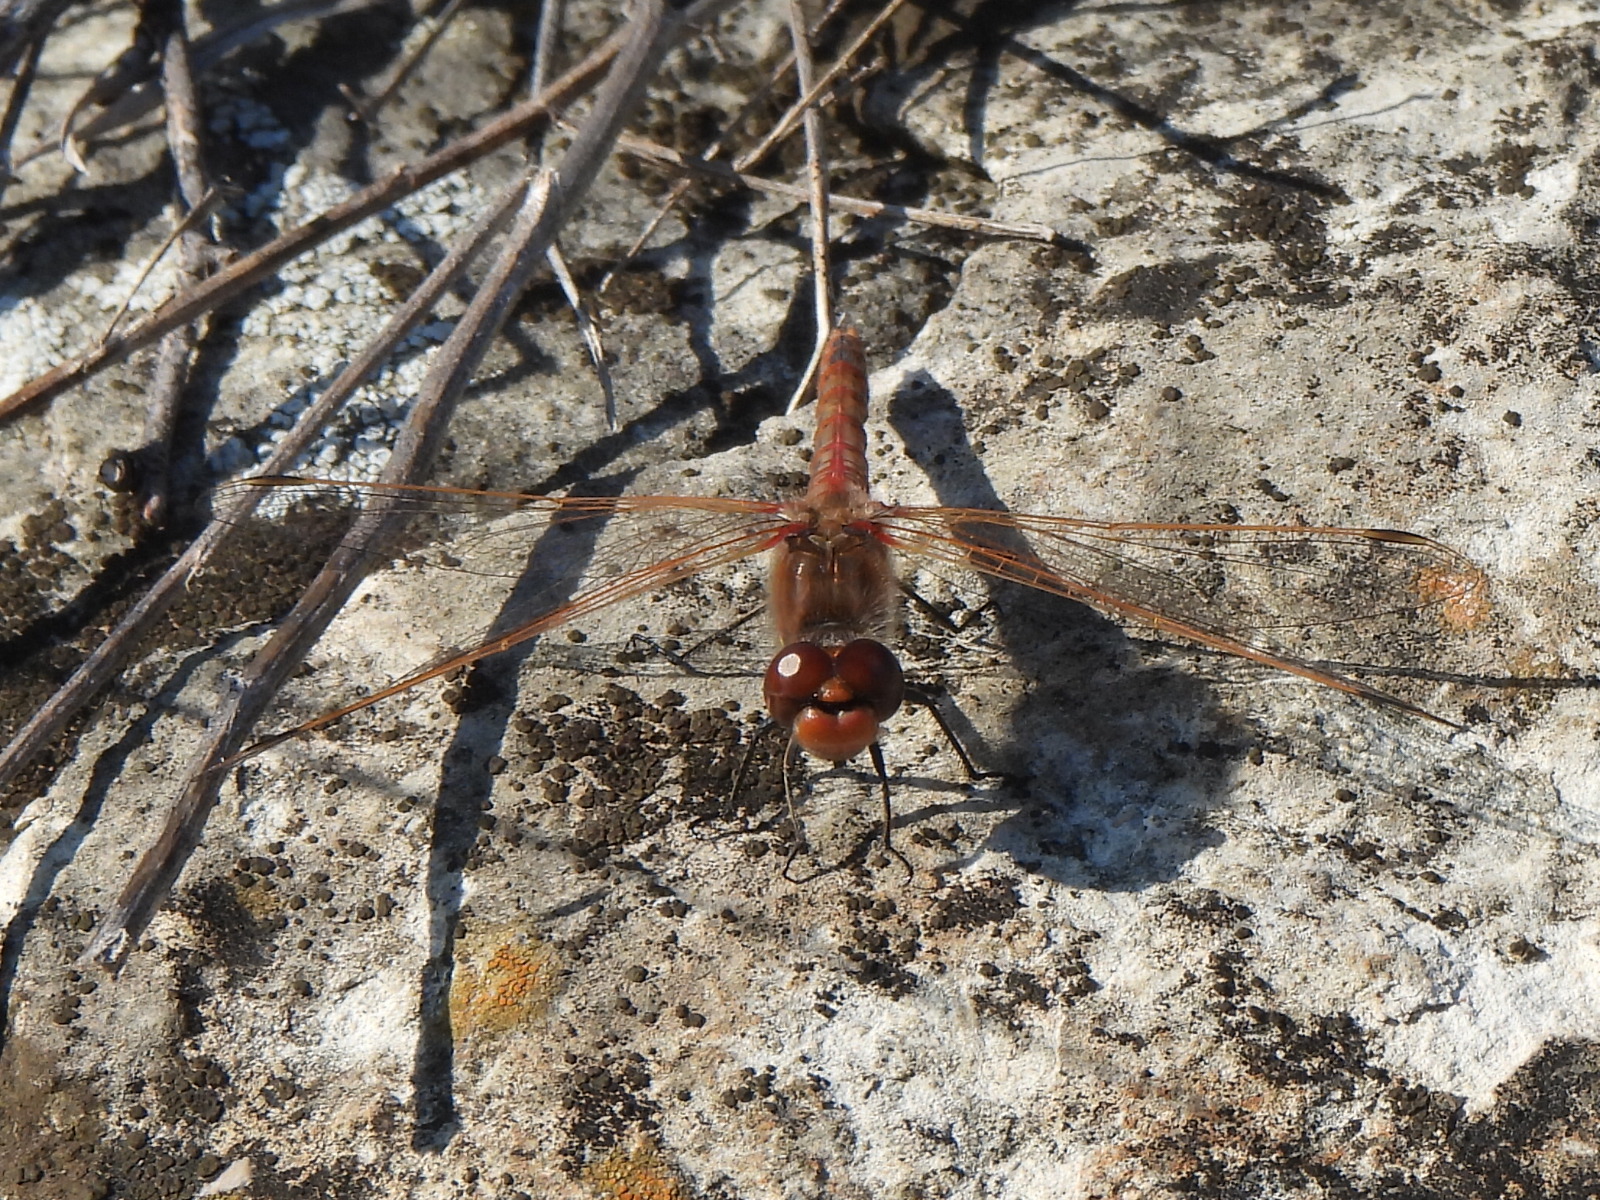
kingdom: Animalia
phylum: Arthropoda
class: Insecta
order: Odonata
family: Libellulidae
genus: Sympetrum
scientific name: Sympetrum corruptum
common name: Variegated meadowhawk
